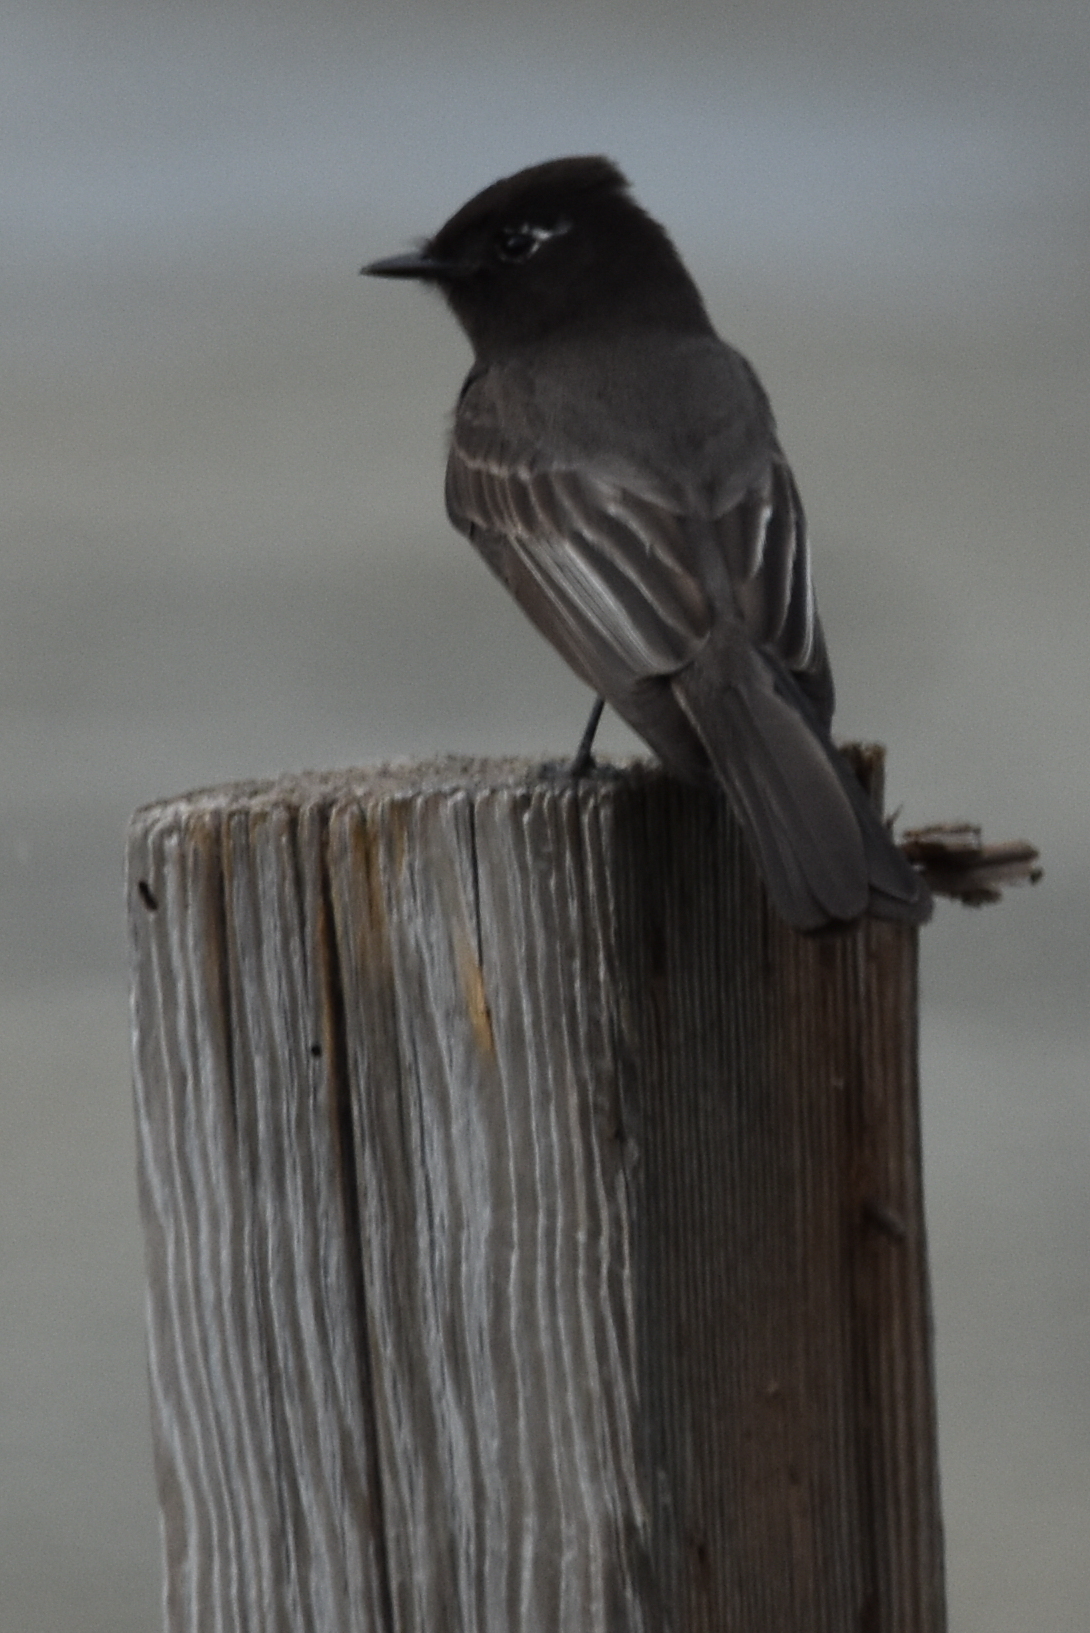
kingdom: Animalia
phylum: Chordata
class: Aves
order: Passeriformes
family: Tyrannidae
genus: Sayornis
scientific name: Sayornis nigricans
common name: Black phoebe
